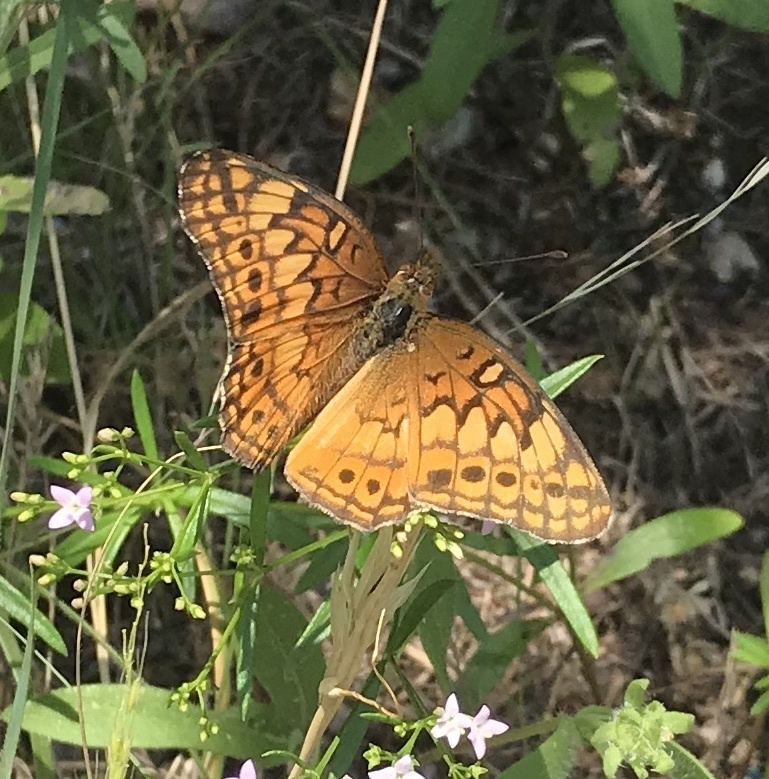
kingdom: Animalia
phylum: Arthropoda
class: Insecta
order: Lepidoptera
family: Nymphalidae
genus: Euptoieta
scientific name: Euptoieta claudia
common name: Variegated fritillary
